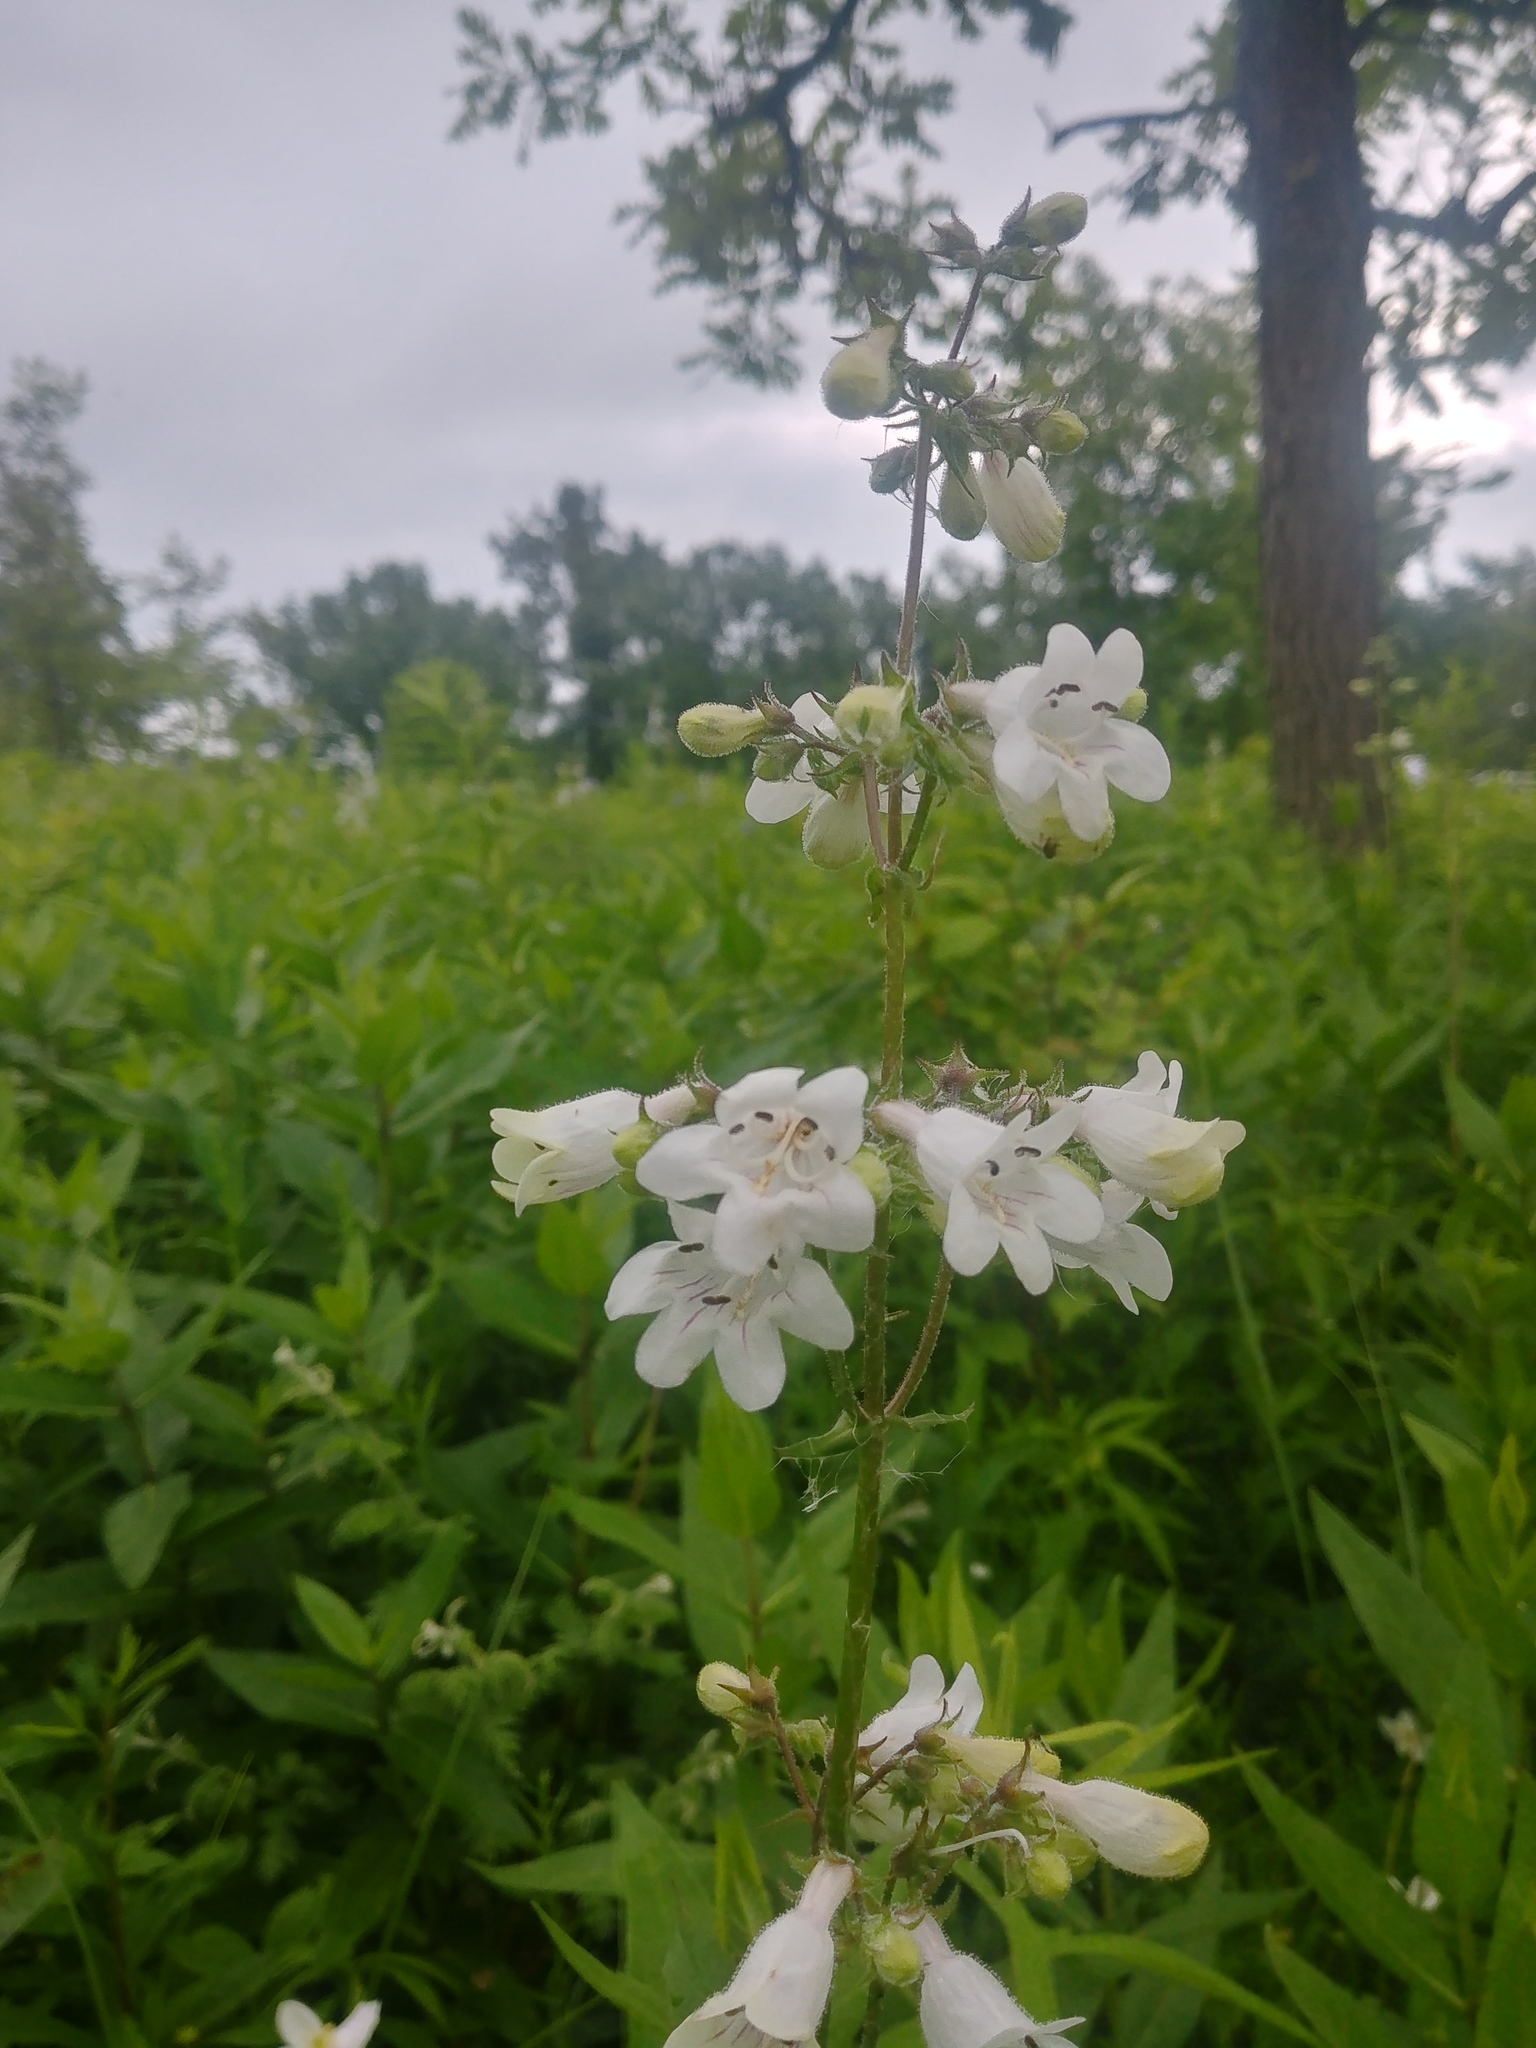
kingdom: Plantae
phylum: Tracheophyta
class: Magnoliopsida
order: Lamiales
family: Plantaginaceae
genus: Penstemon
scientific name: Penstemon digitalis
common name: Foxglove beardtongue
